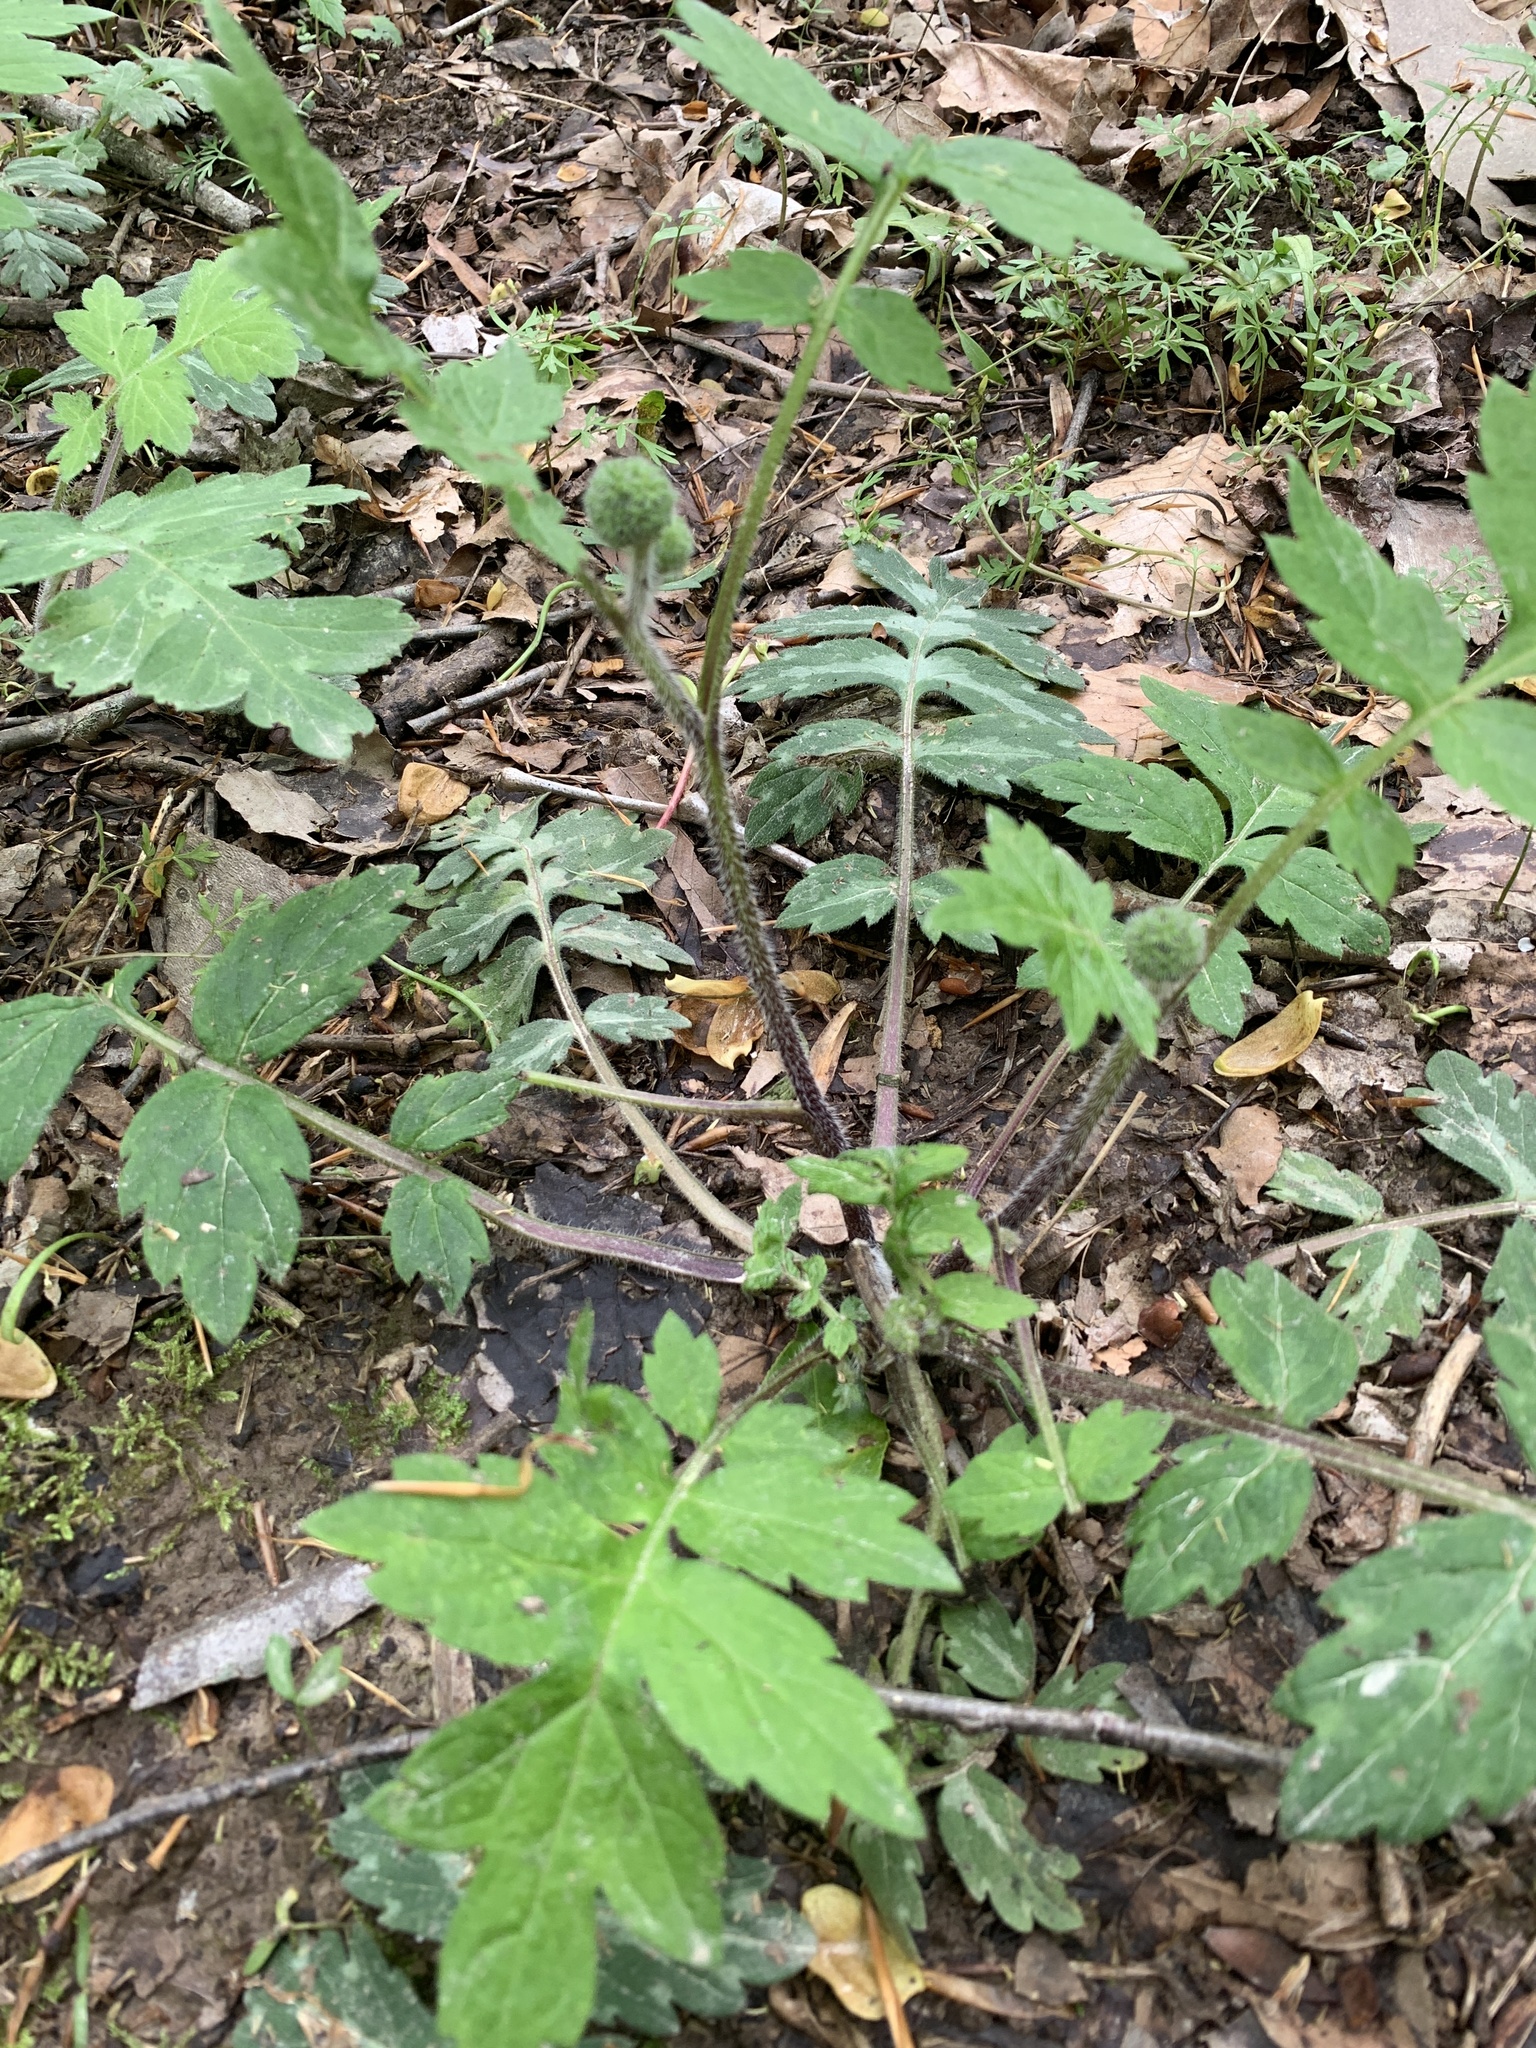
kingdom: Plantae
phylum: Tracheophyta
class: Magnoliopsida
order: Boraginales
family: Hydrophyllaceae
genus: Hydrophyllum
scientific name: Hydrophyllum macrophyllum
